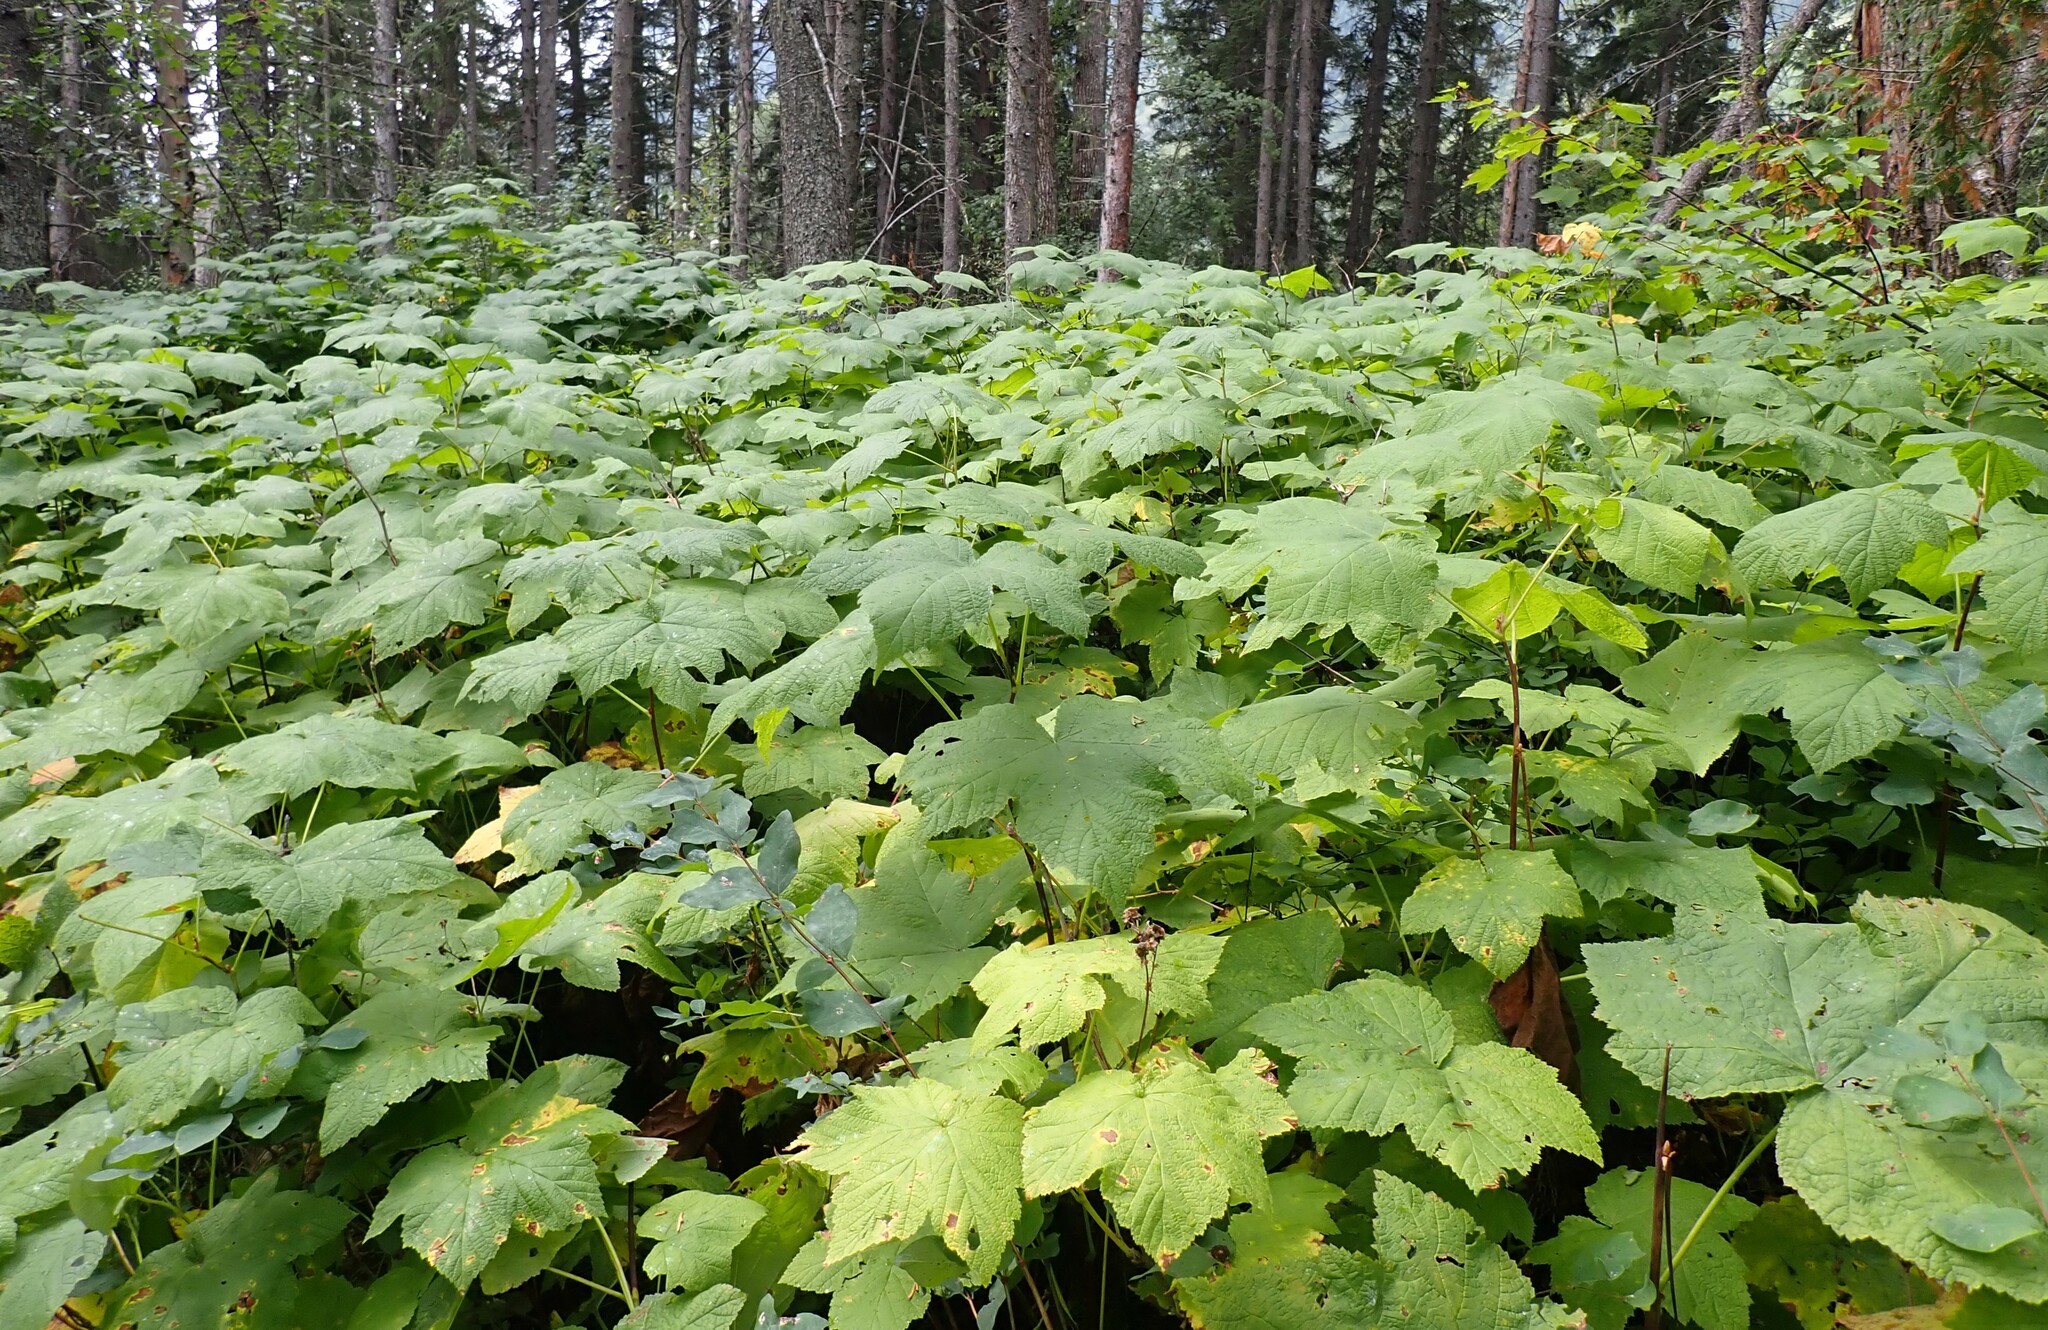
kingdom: Plantae
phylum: Tracheophyta
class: Magnoliopsida
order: Rosales
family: Rosaceae
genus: Rubus
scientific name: Rubus parviflorus
